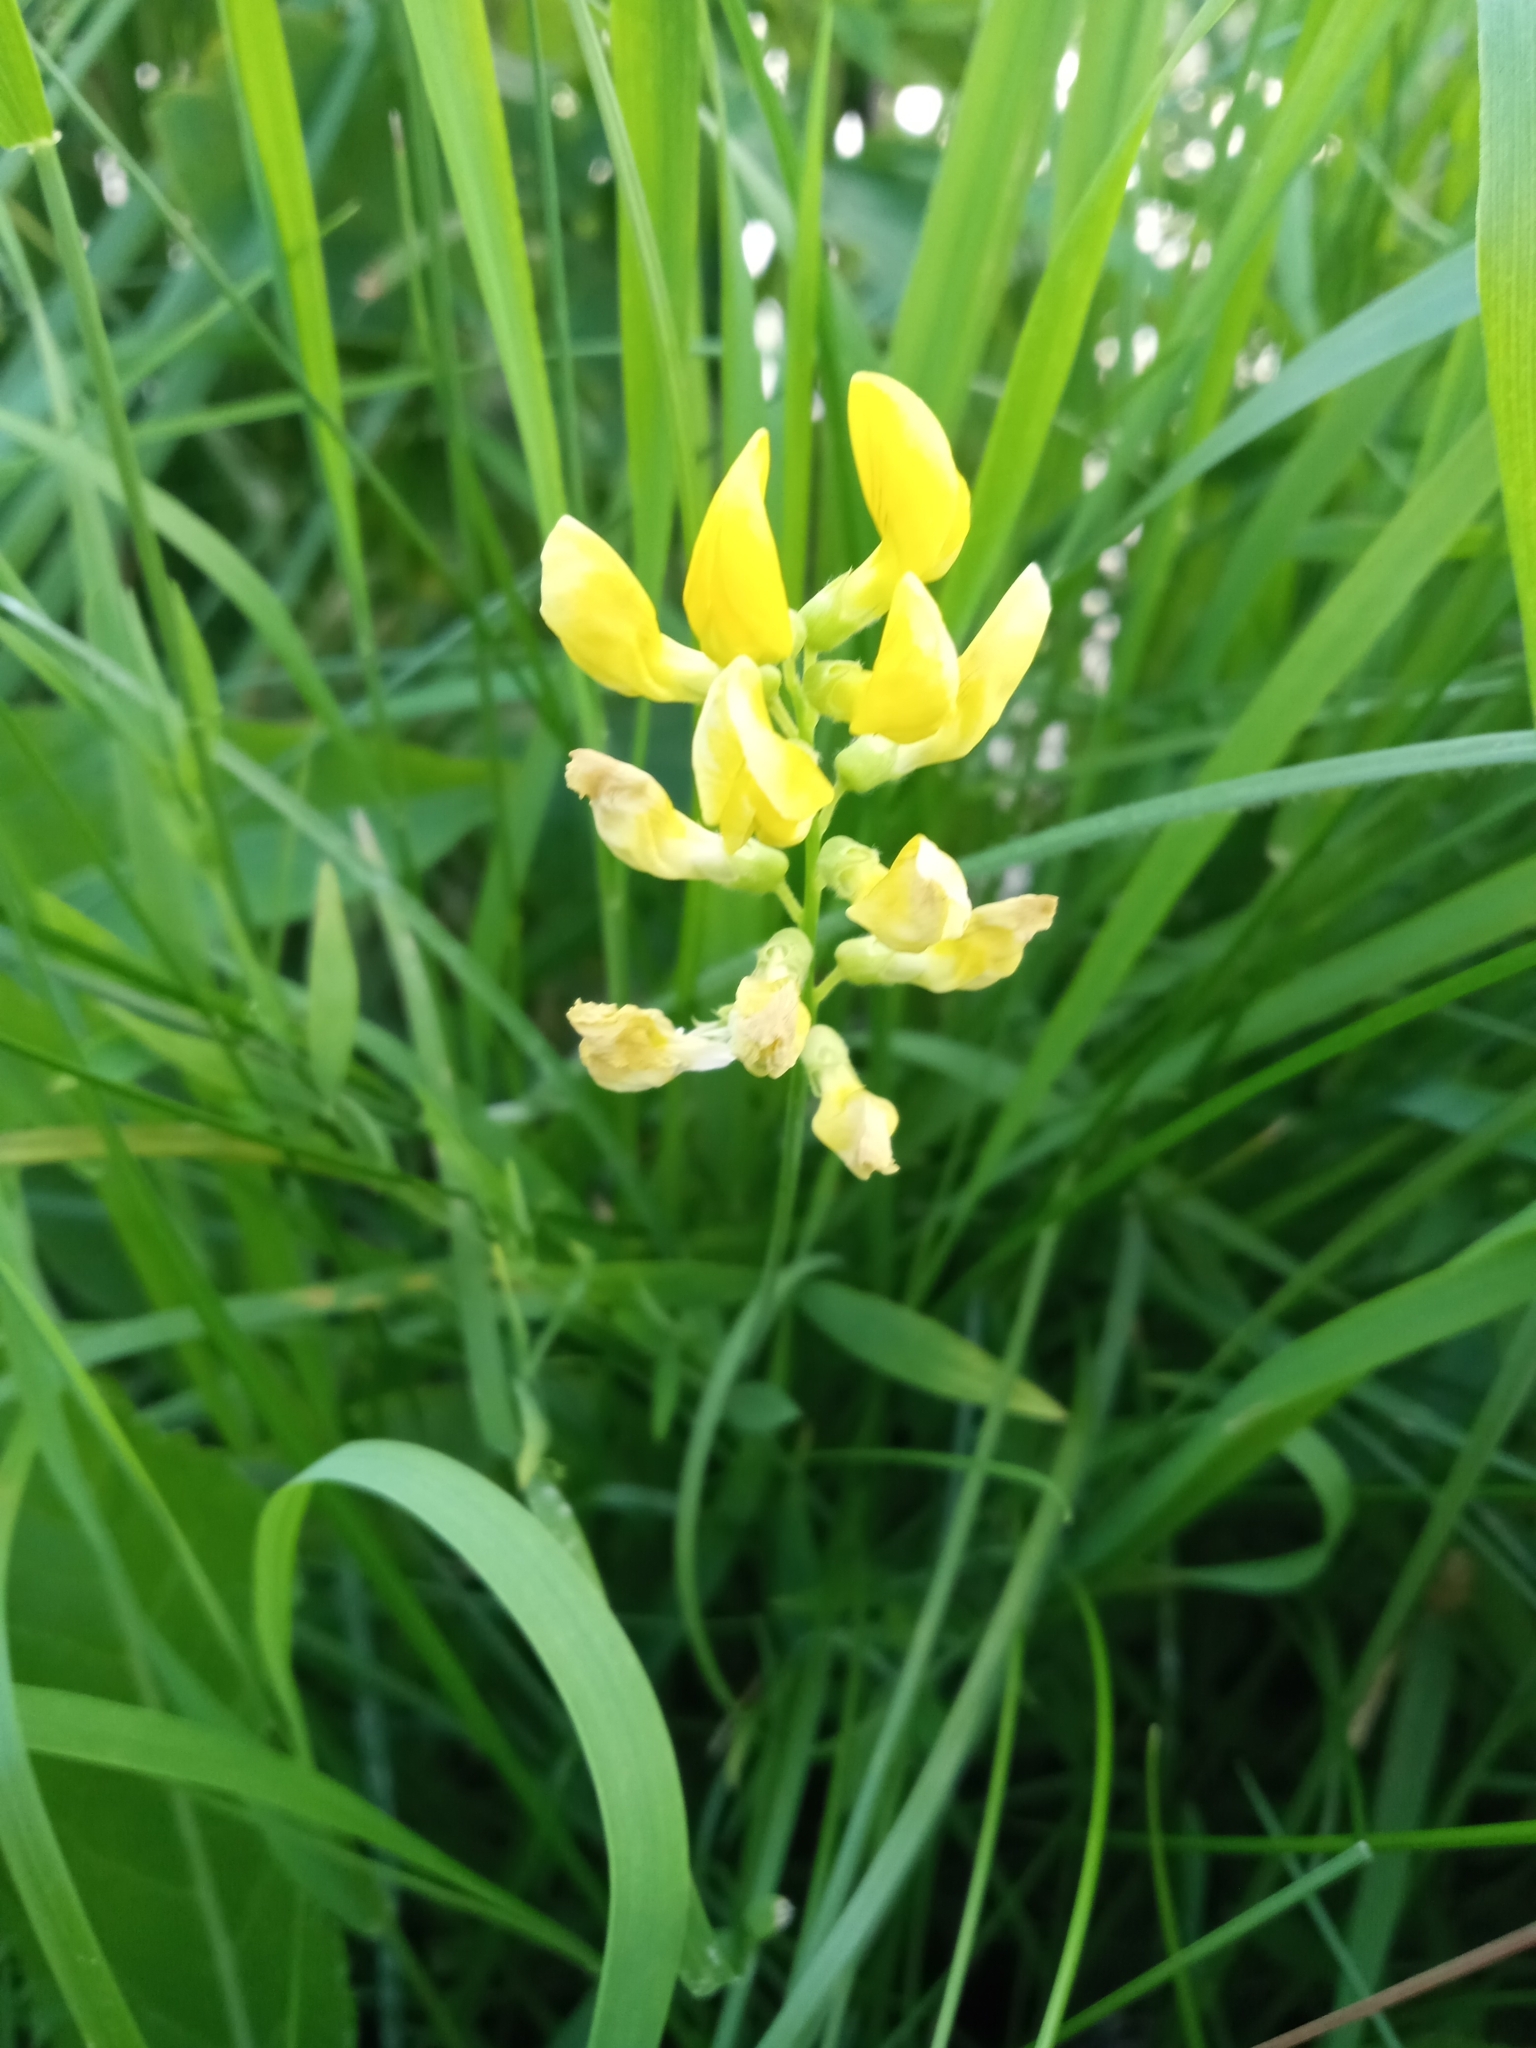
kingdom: Plantae
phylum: Tracheophyta
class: Magnoliopsida
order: Fabales
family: Fabaceae
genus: Lathyrus
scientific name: Lathyrus pratensis
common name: Meadow vetchling
